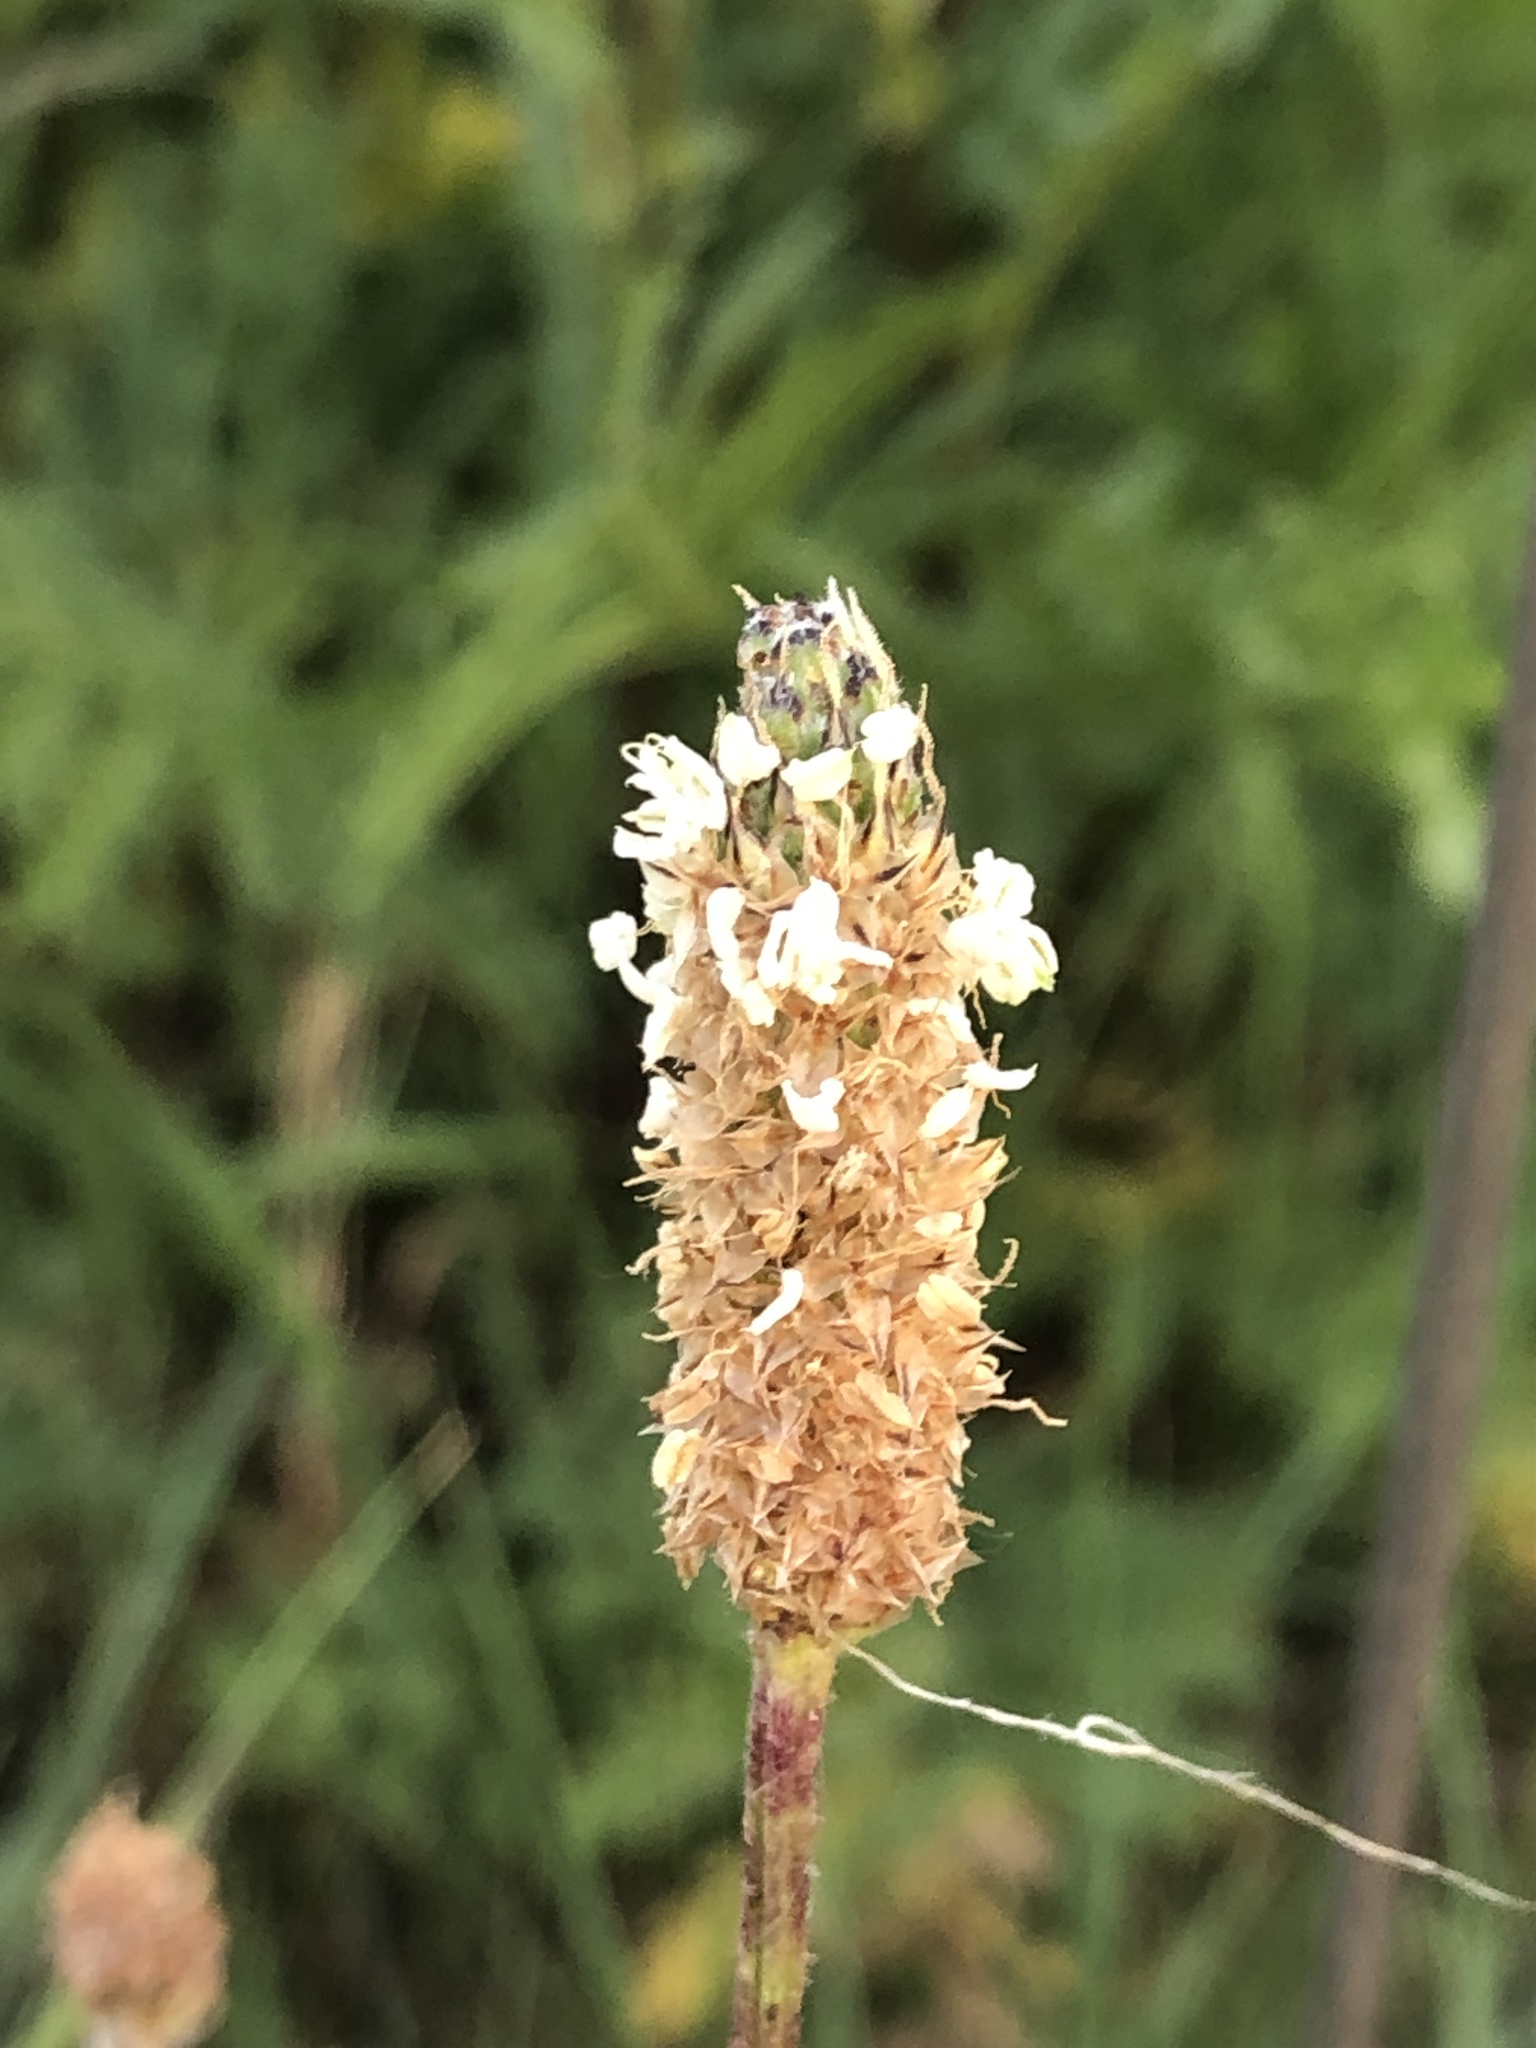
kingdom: Plantae
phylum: Tracheophyta
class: Magnoliopsida
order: Lamiales
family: Plantaginaceae
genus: Plantago
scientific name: Plantago lanceolata
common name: Ribwort plantain
